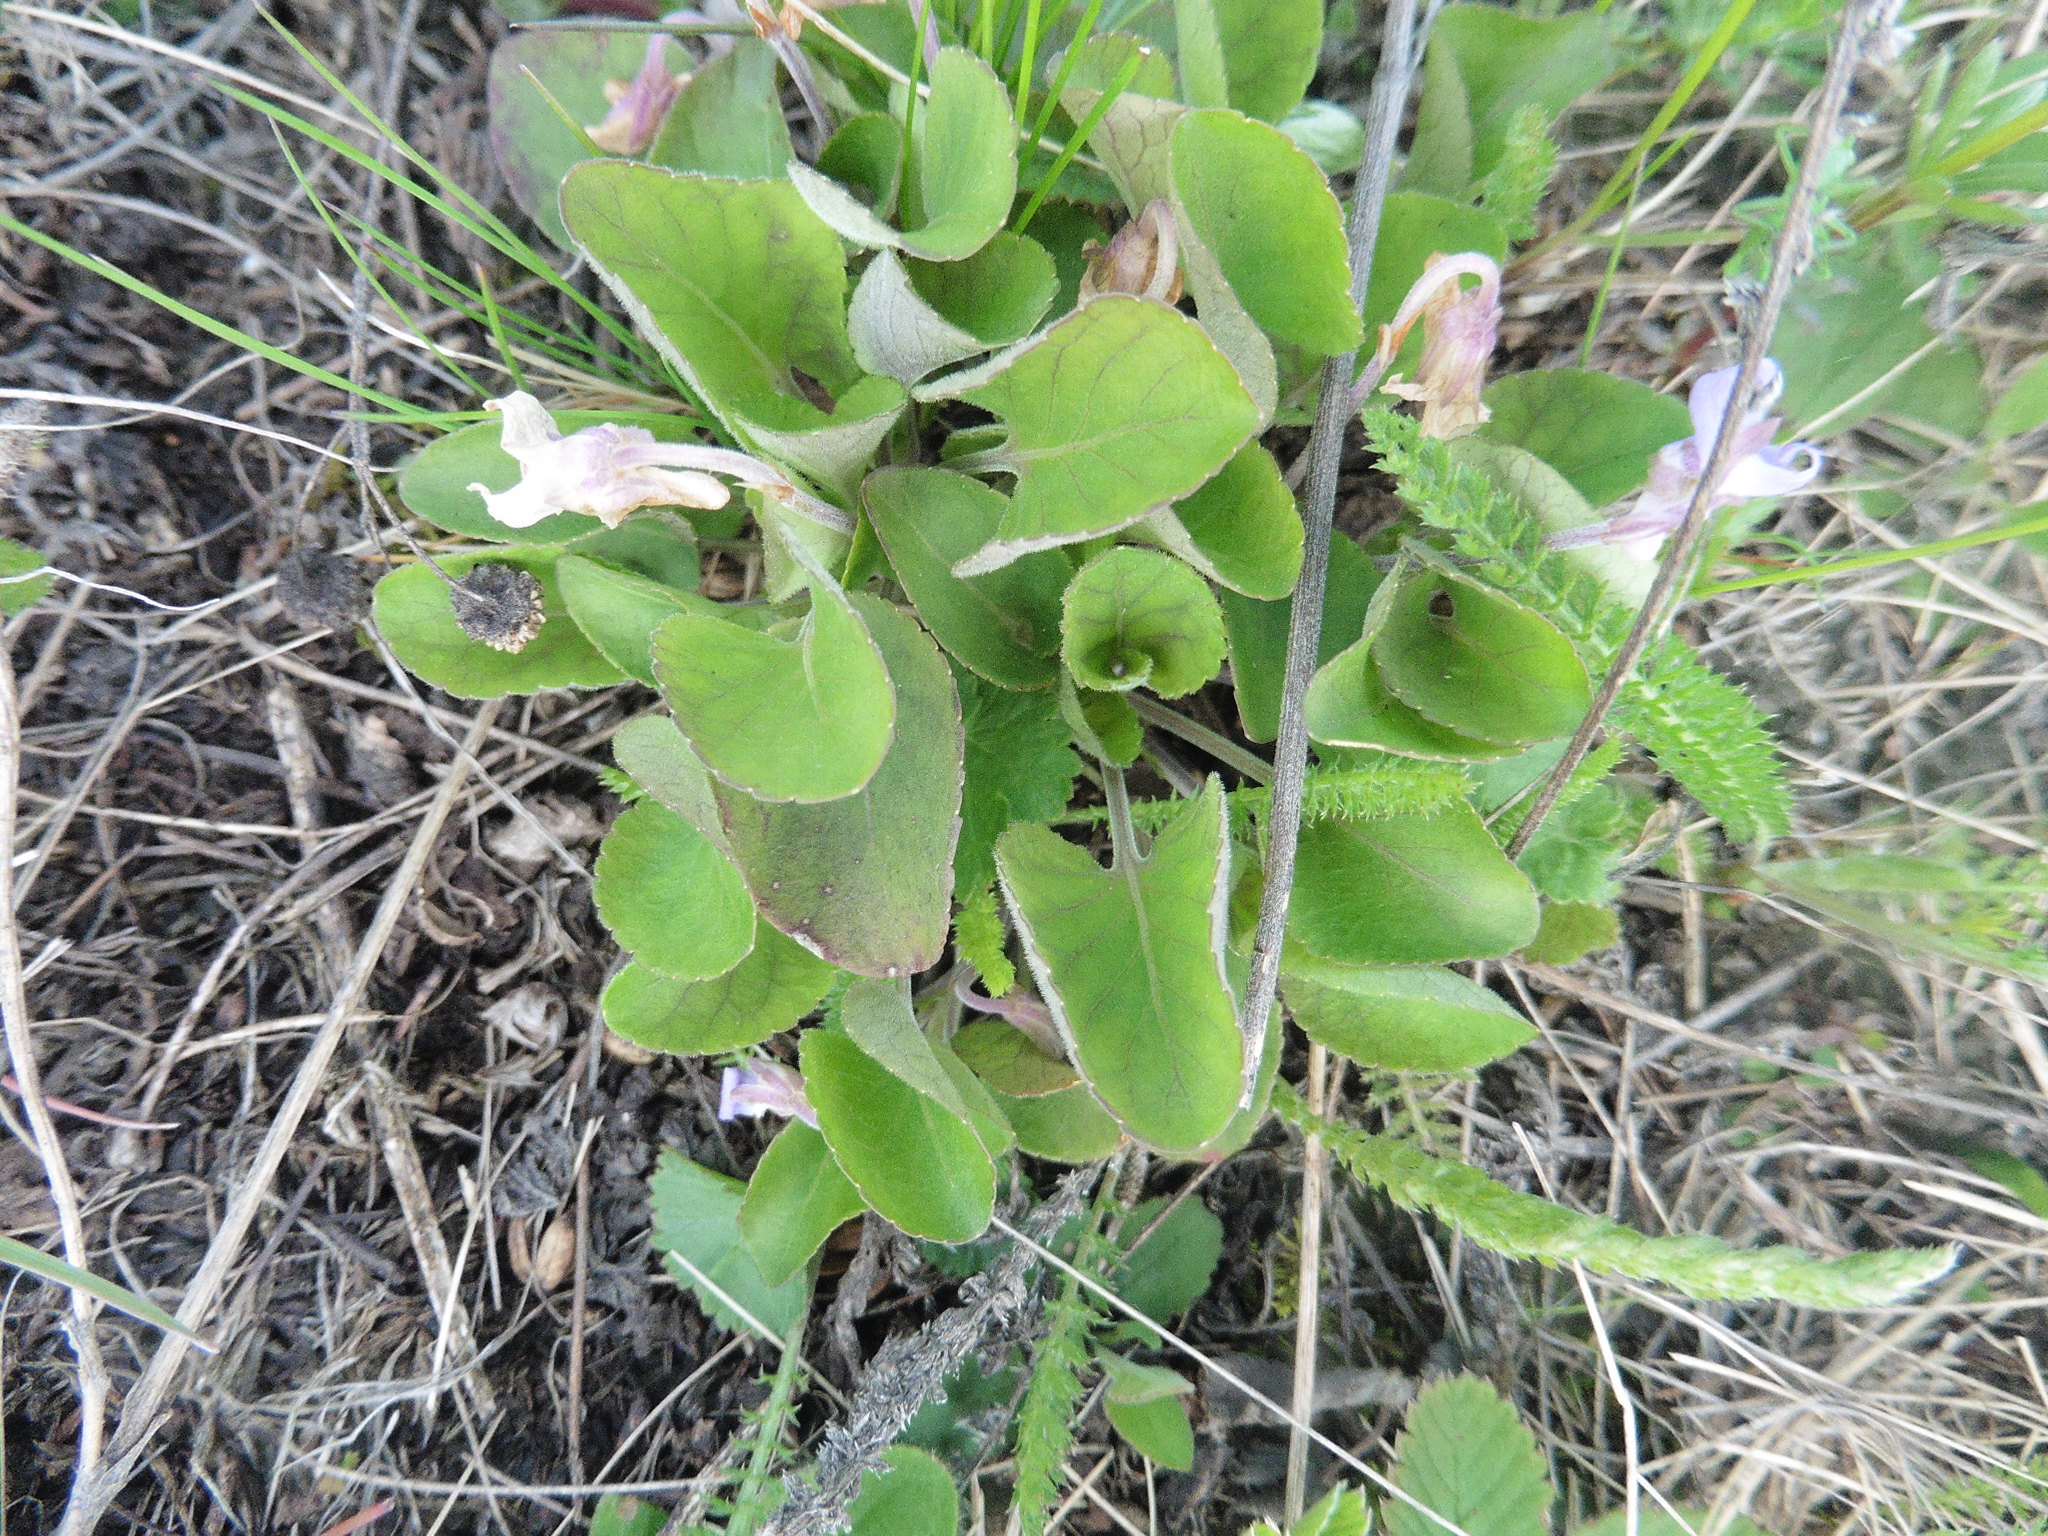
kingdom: Plantae
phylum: Tracheophyta
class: Magnoliopsida
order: Malpighiales
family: Violaceae
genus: Viola
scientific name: Viola rupestris
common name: Teesdale violet
